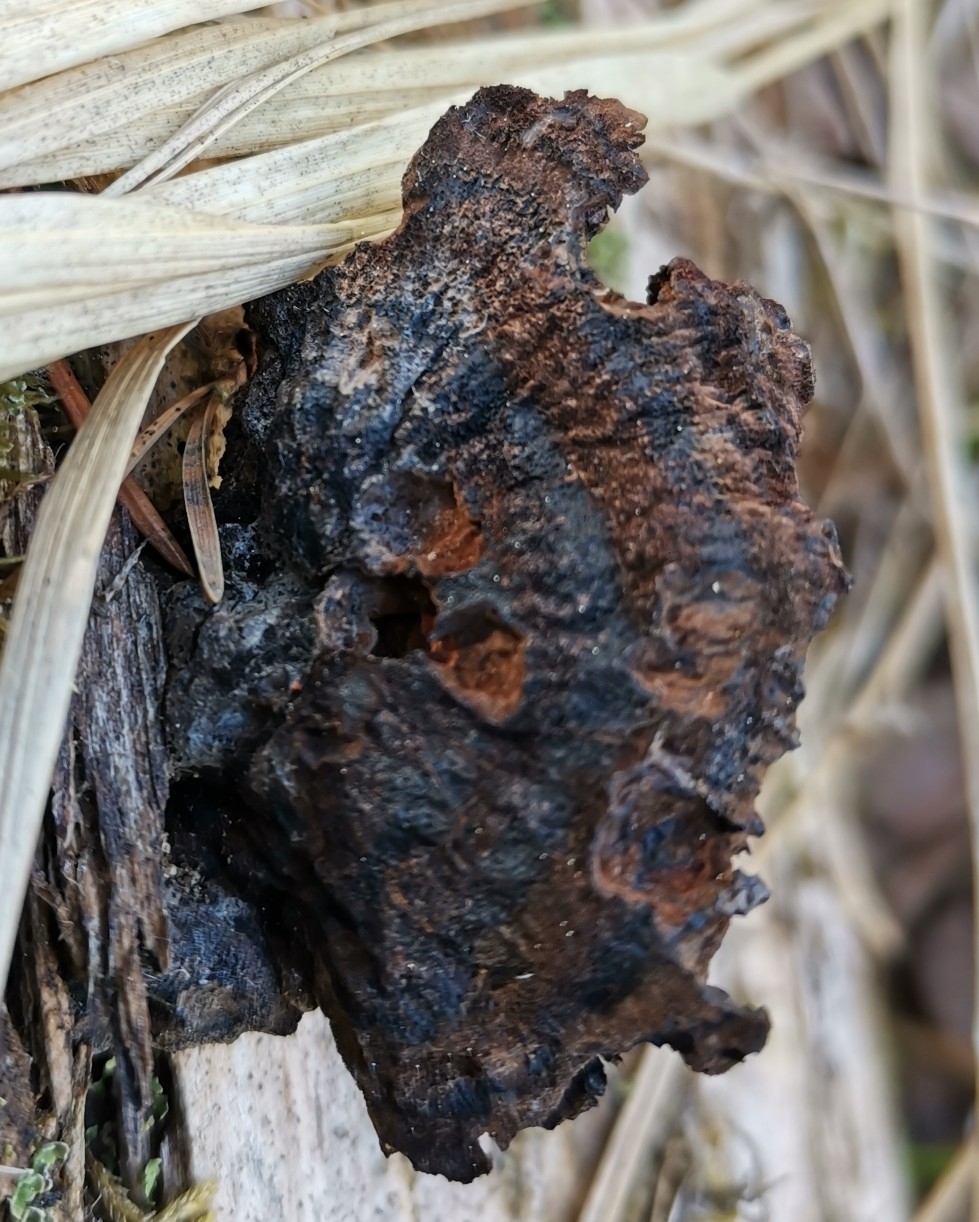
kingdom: Fungi
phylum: Basidiomycota
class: Agaricomycetes
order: Polyporales
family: Ischnodermataceae
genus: Ischnoderma
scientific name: Ischnoderma benzoinum
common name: Benzoin bracket
